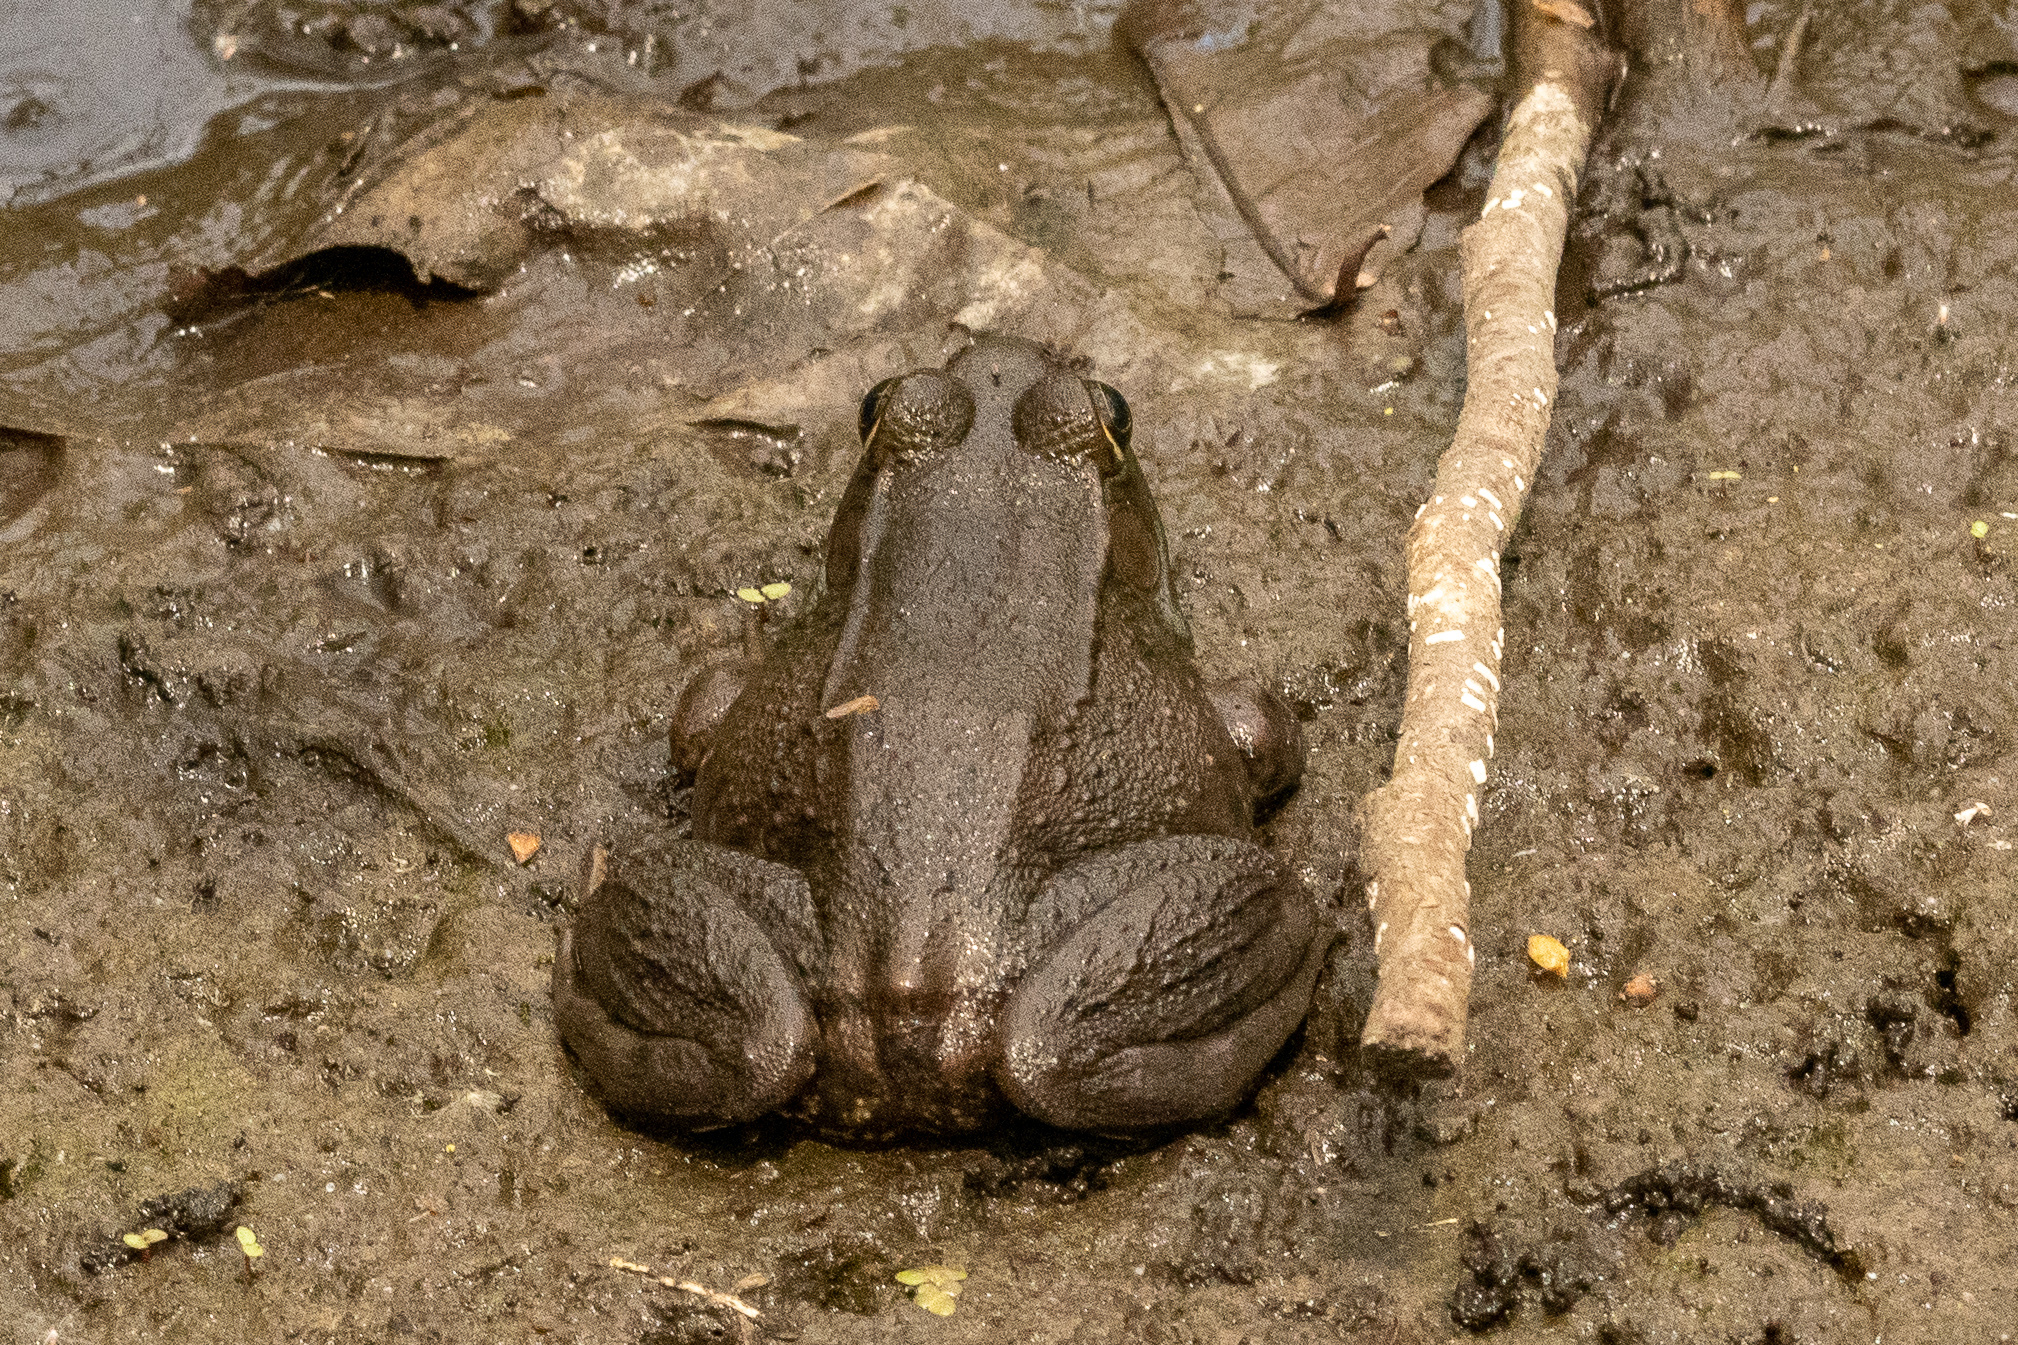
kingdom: Animalia
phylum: Chordata
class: Amphibia
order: Anura
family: Ranidae
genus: Lithobates
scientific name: Lithobates clamitans
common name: Green frog
